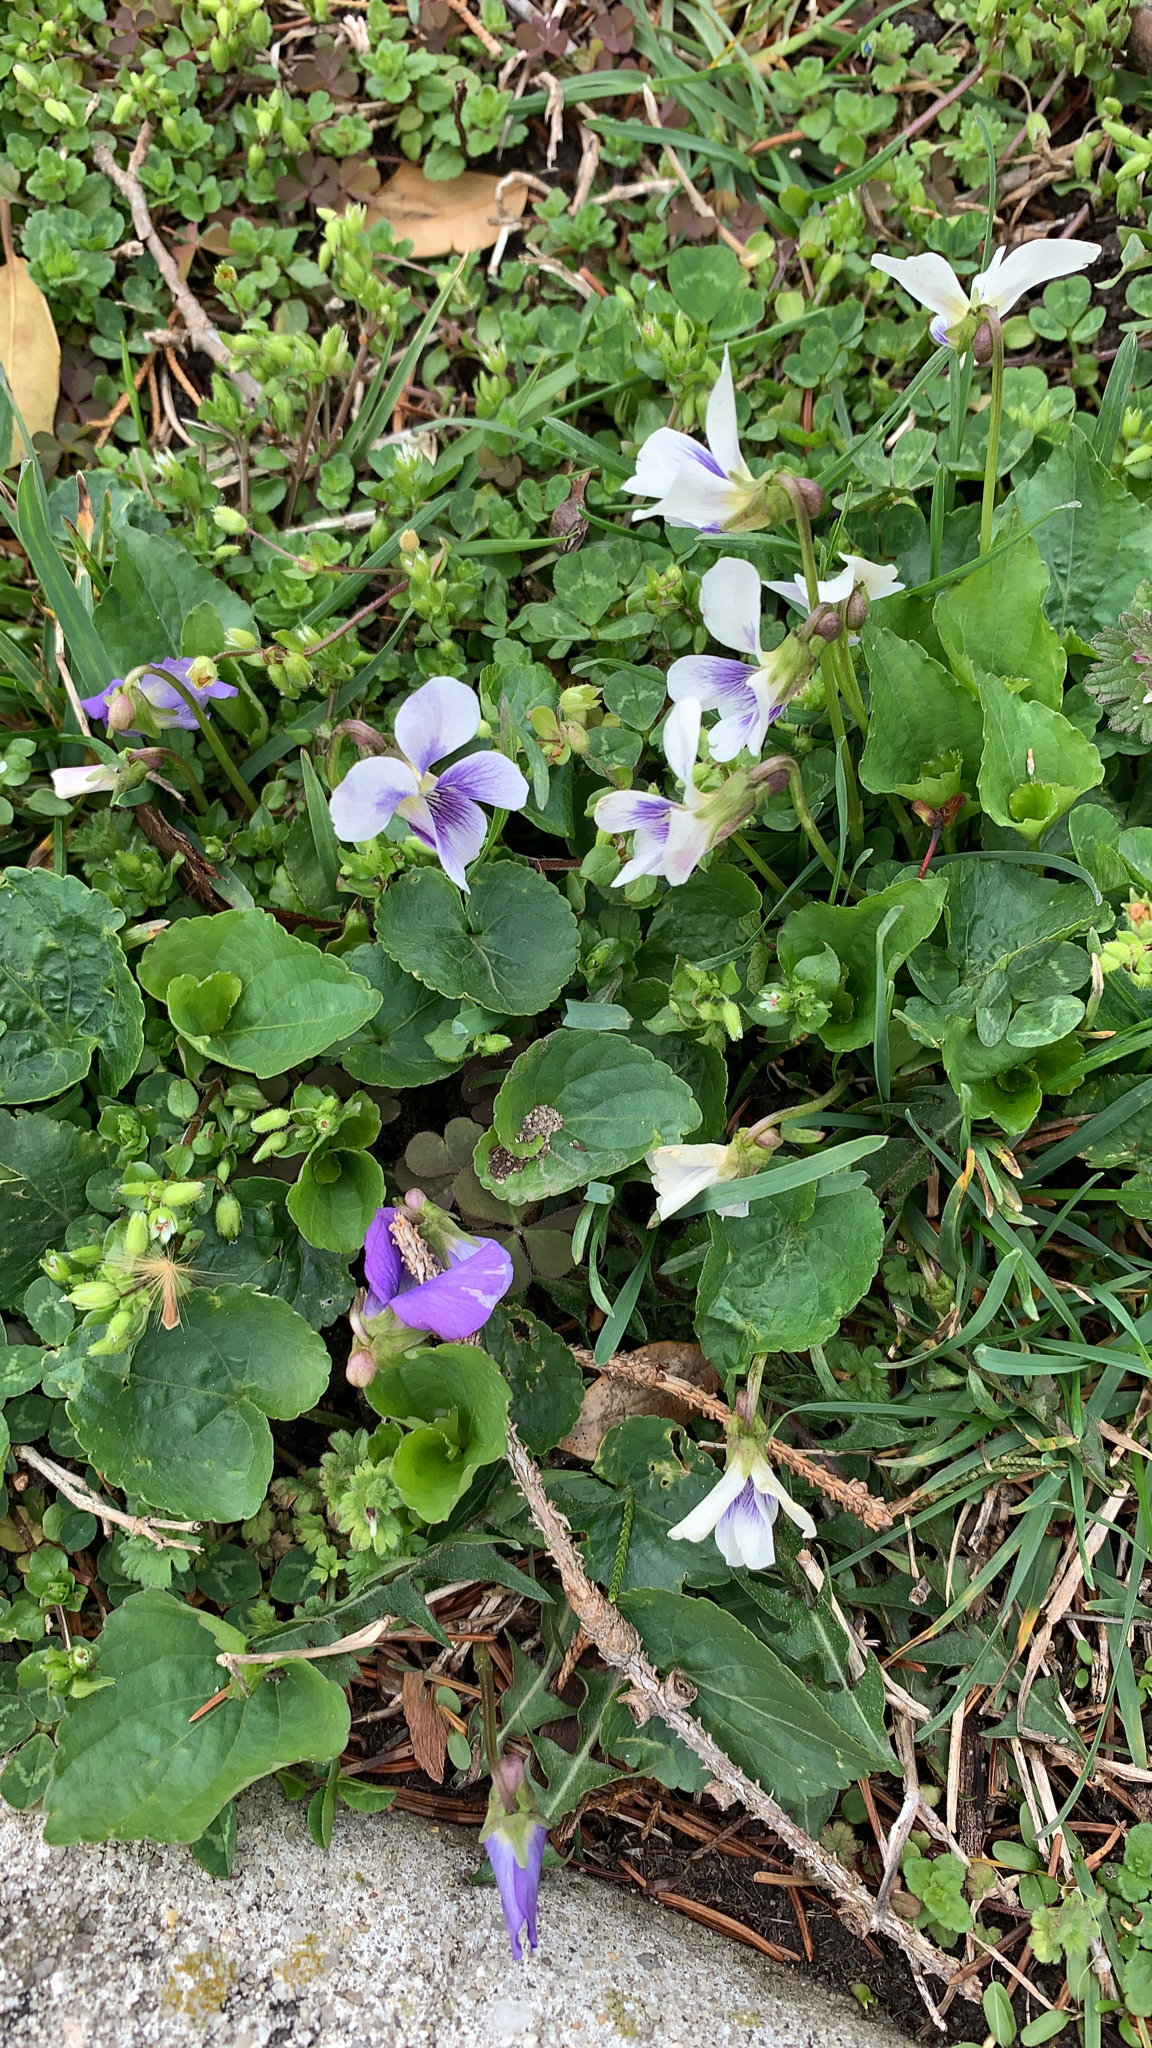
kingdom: Plantae
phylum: Tracheophyta
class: Magnoliopsida
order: Malpighiales
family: Violaceae
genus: Viola
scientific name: Viola sororia
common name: Dooryard violet
